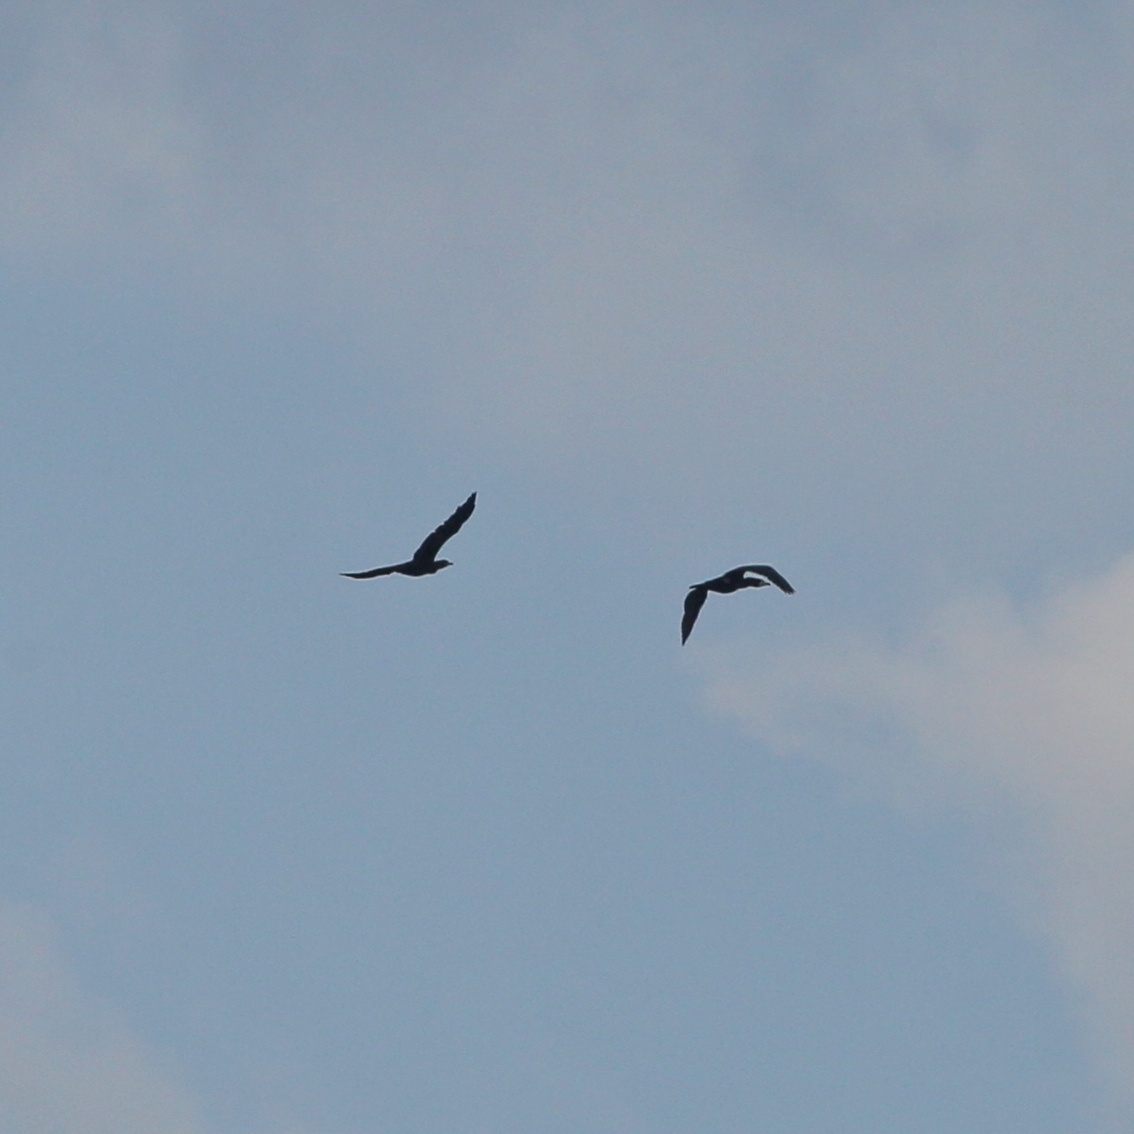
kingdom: Animalia
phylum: Chordata
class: Aves
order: Suliformes
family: Phalacrocoracidae
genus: Phalacrocorax
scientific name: Phalacrocorax carbo
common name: Great cormorant
